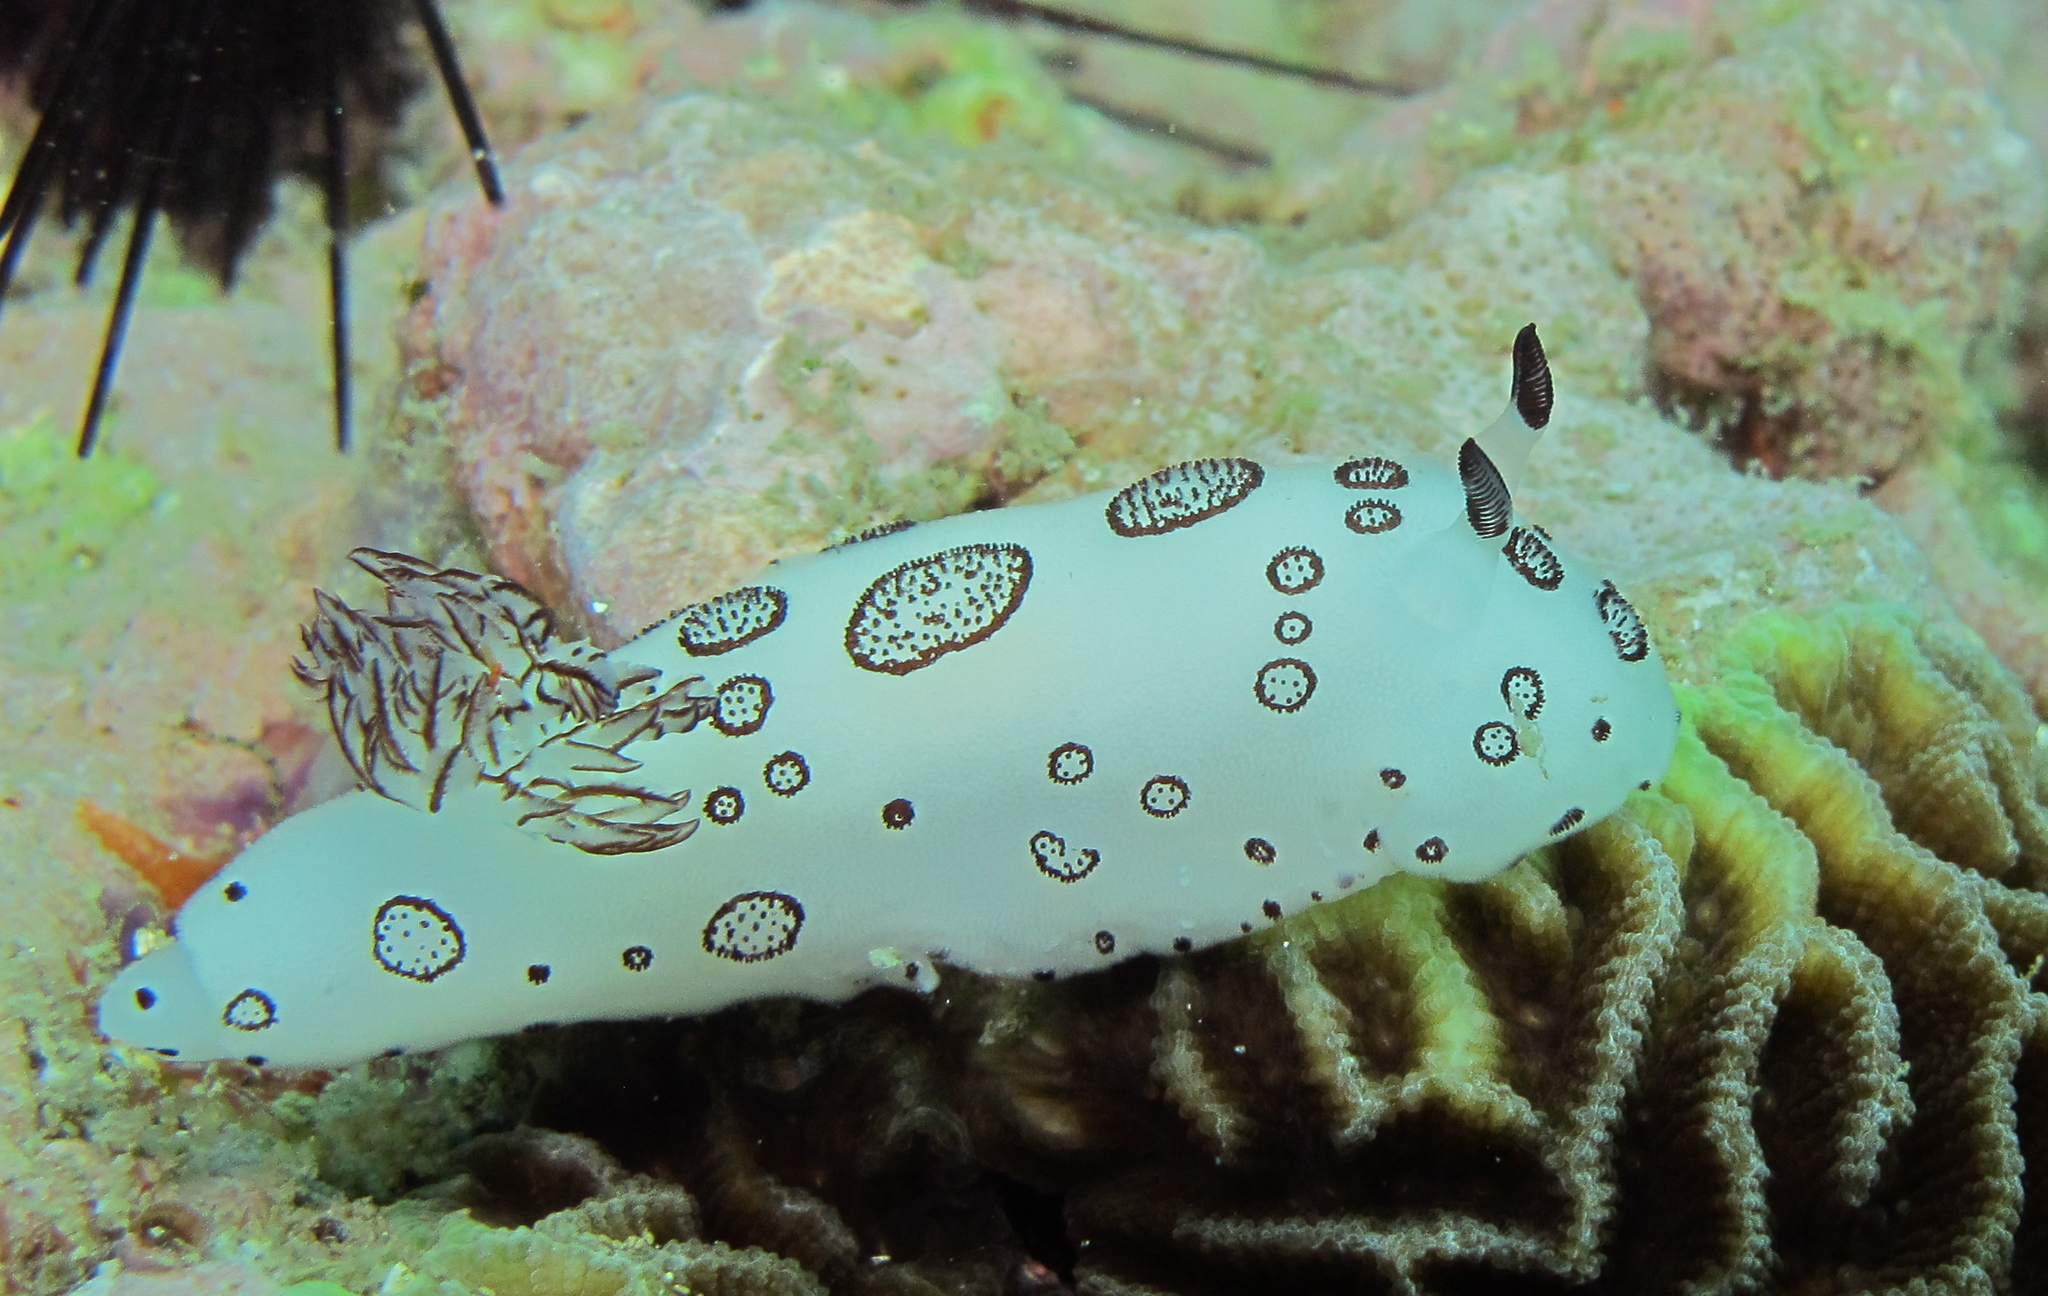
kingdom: Animalia
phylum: Mollusca
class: Gastropoda
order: Nudibranchia
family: Discodorididae
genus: Jorunna
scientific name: Jorunna funebris
